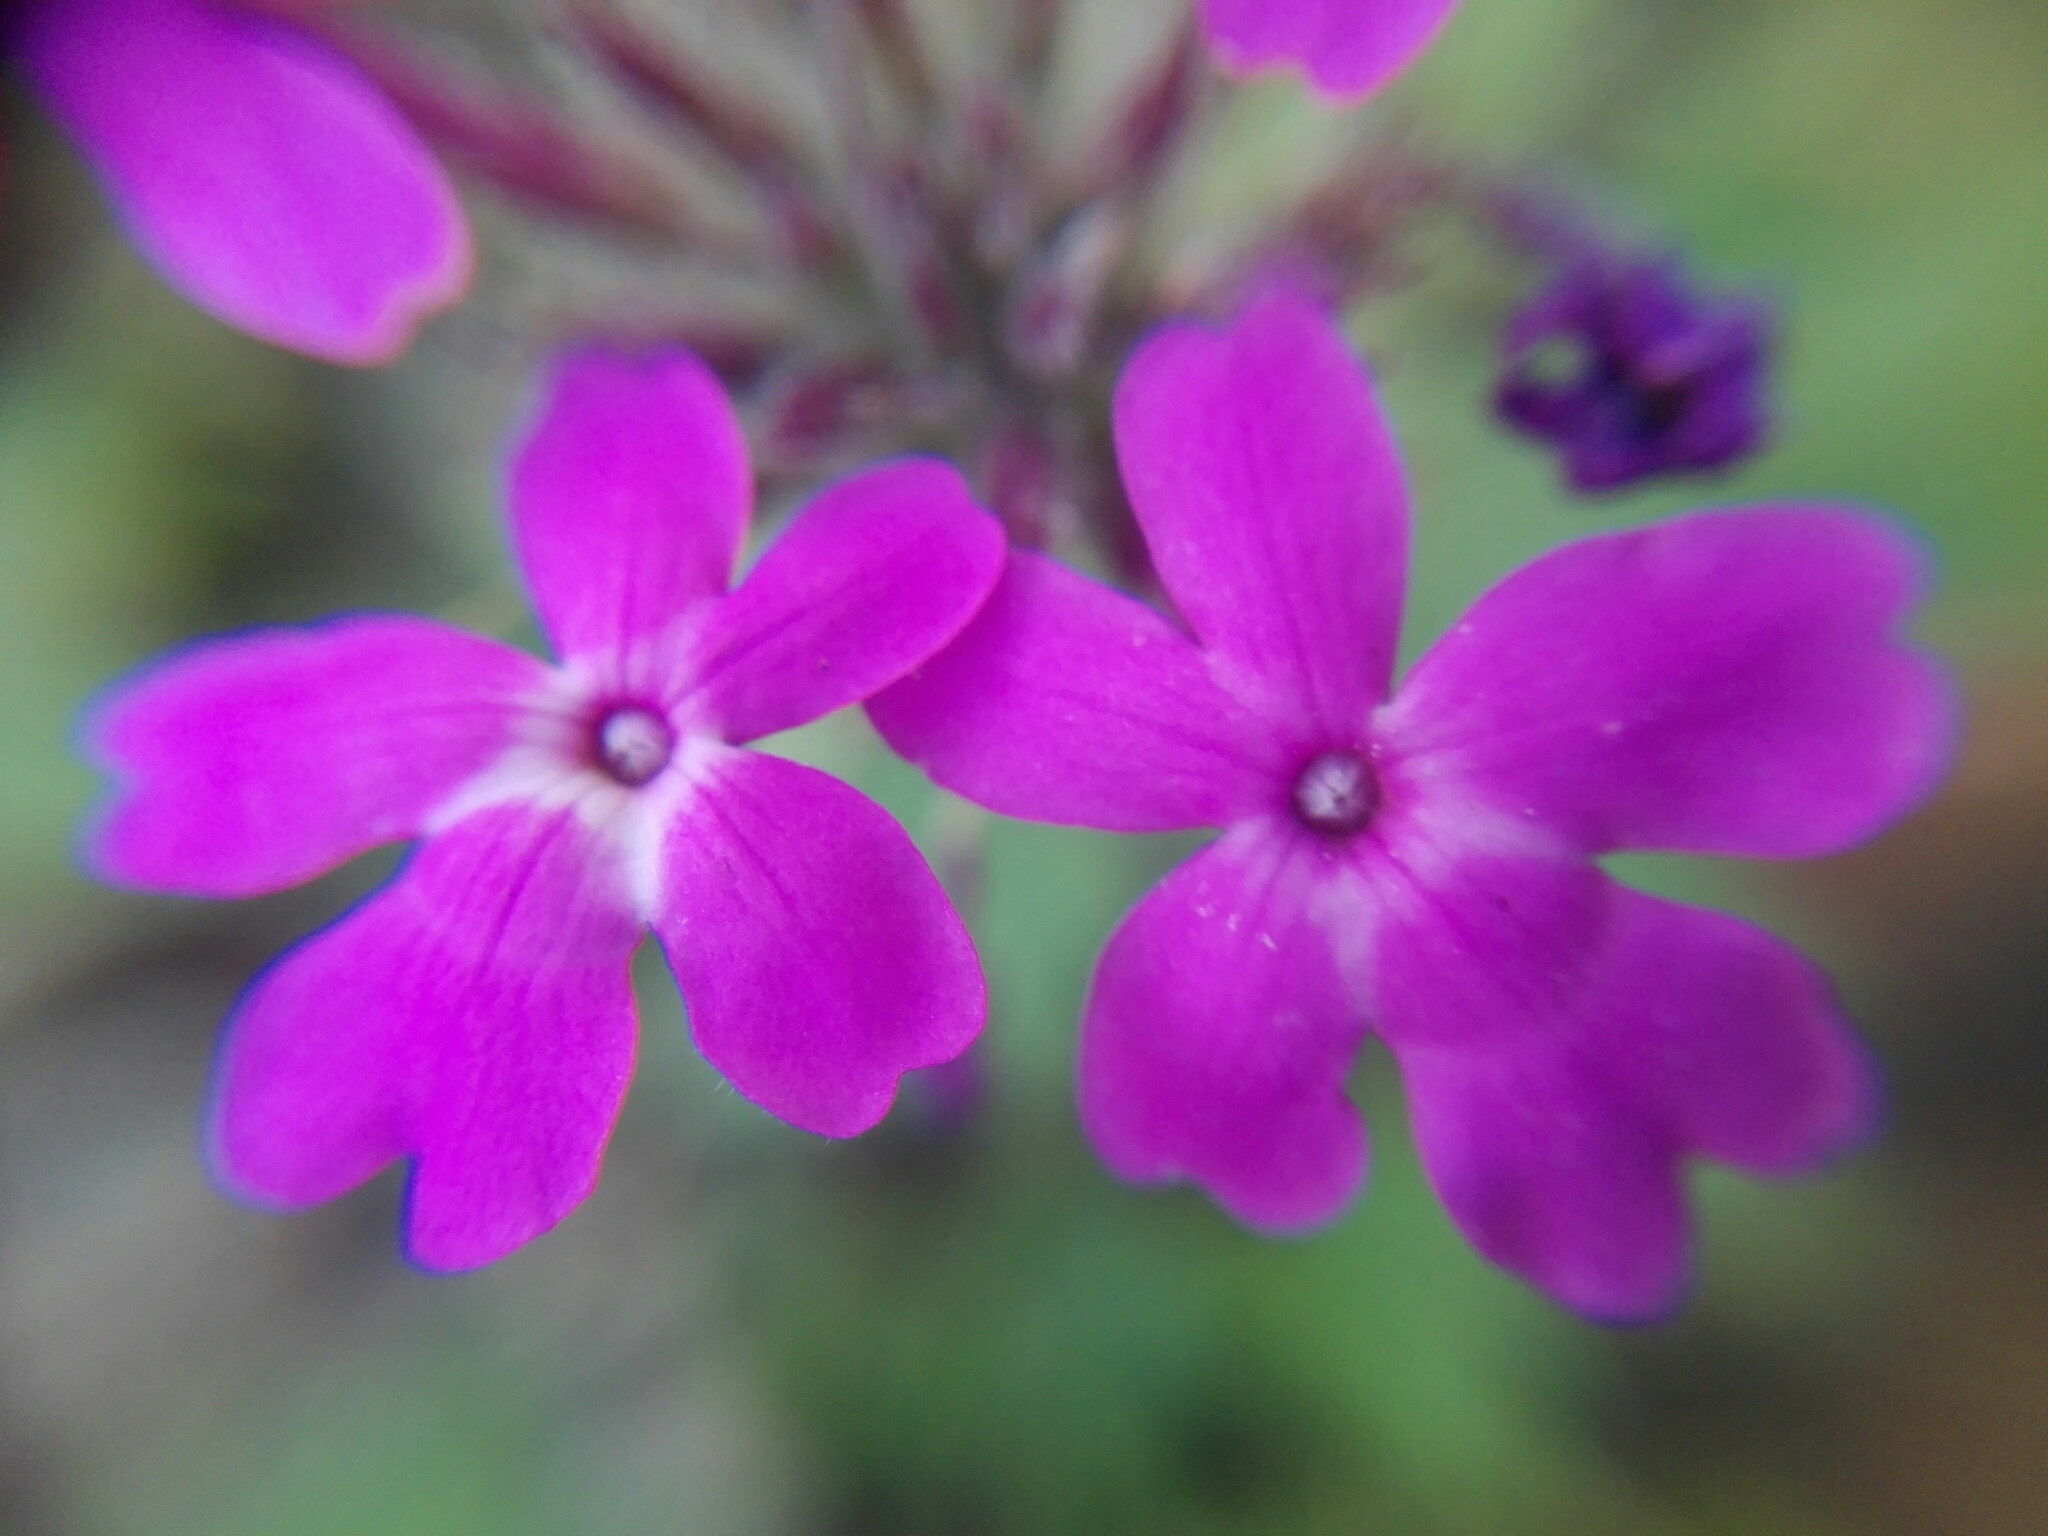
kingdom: Plantae
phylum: Tracheophyta
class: Magnoliopsida
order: Lamiales
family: Verbenaceae
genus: Verbena
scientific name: Verbena canadensis
